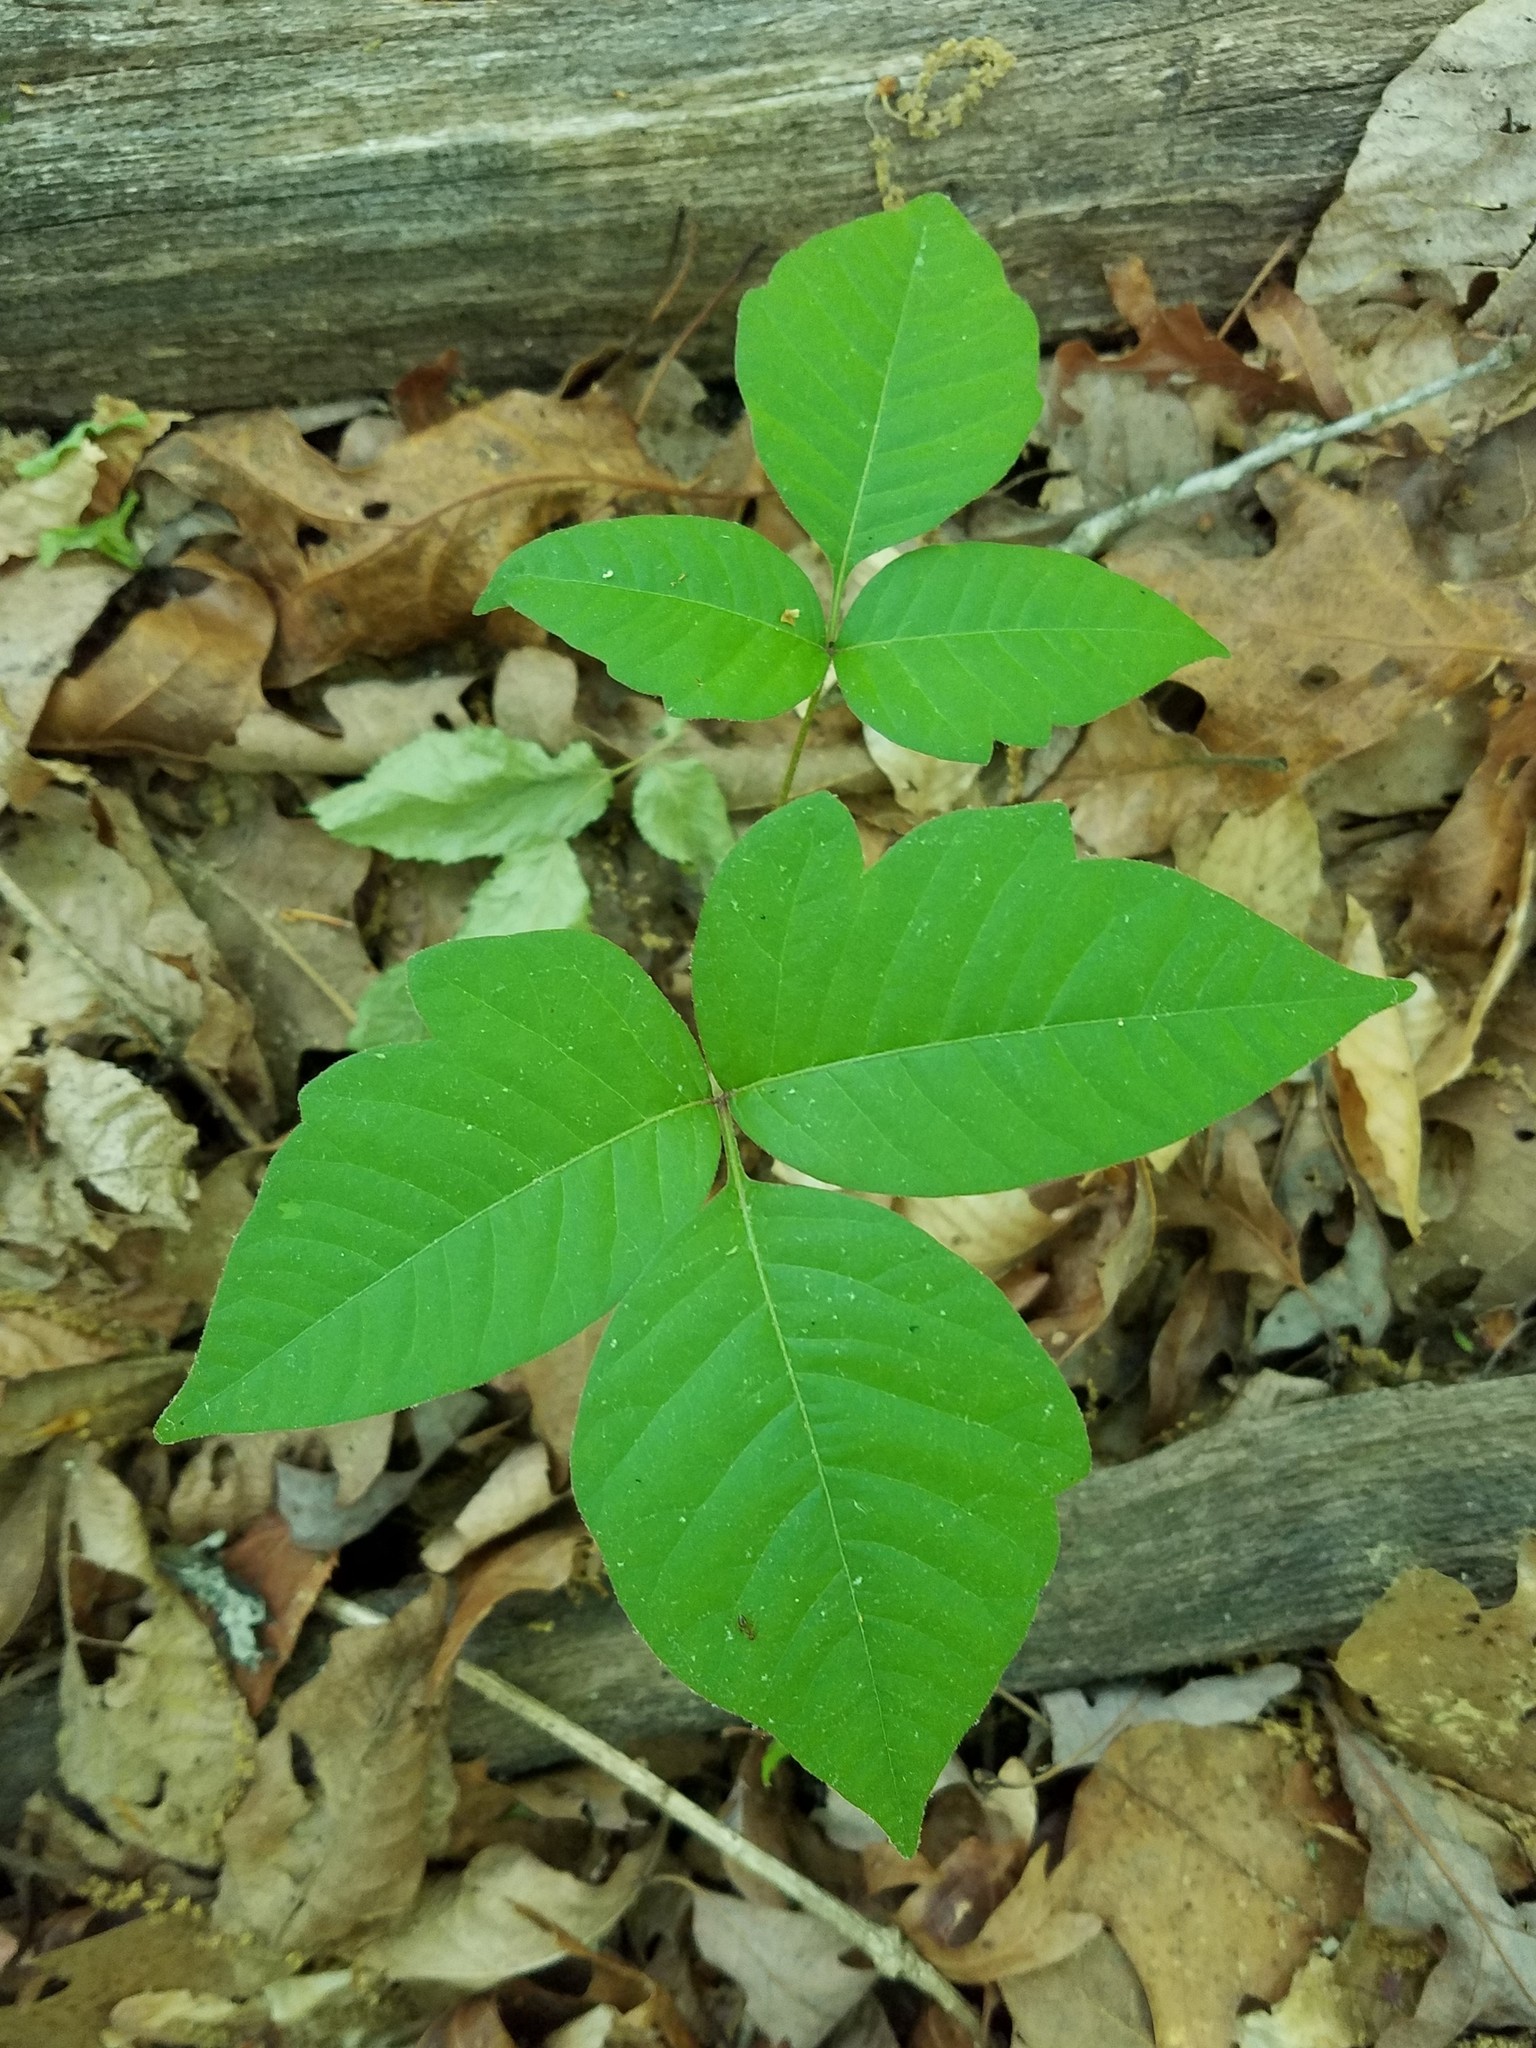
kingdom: Plantae
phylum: Tracheophyta
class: Magnoliopsida
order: Sapindales
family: Anacardiaceae
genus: Toxicodendron
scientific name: Toxicodendron radicans
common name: Poison ivy
